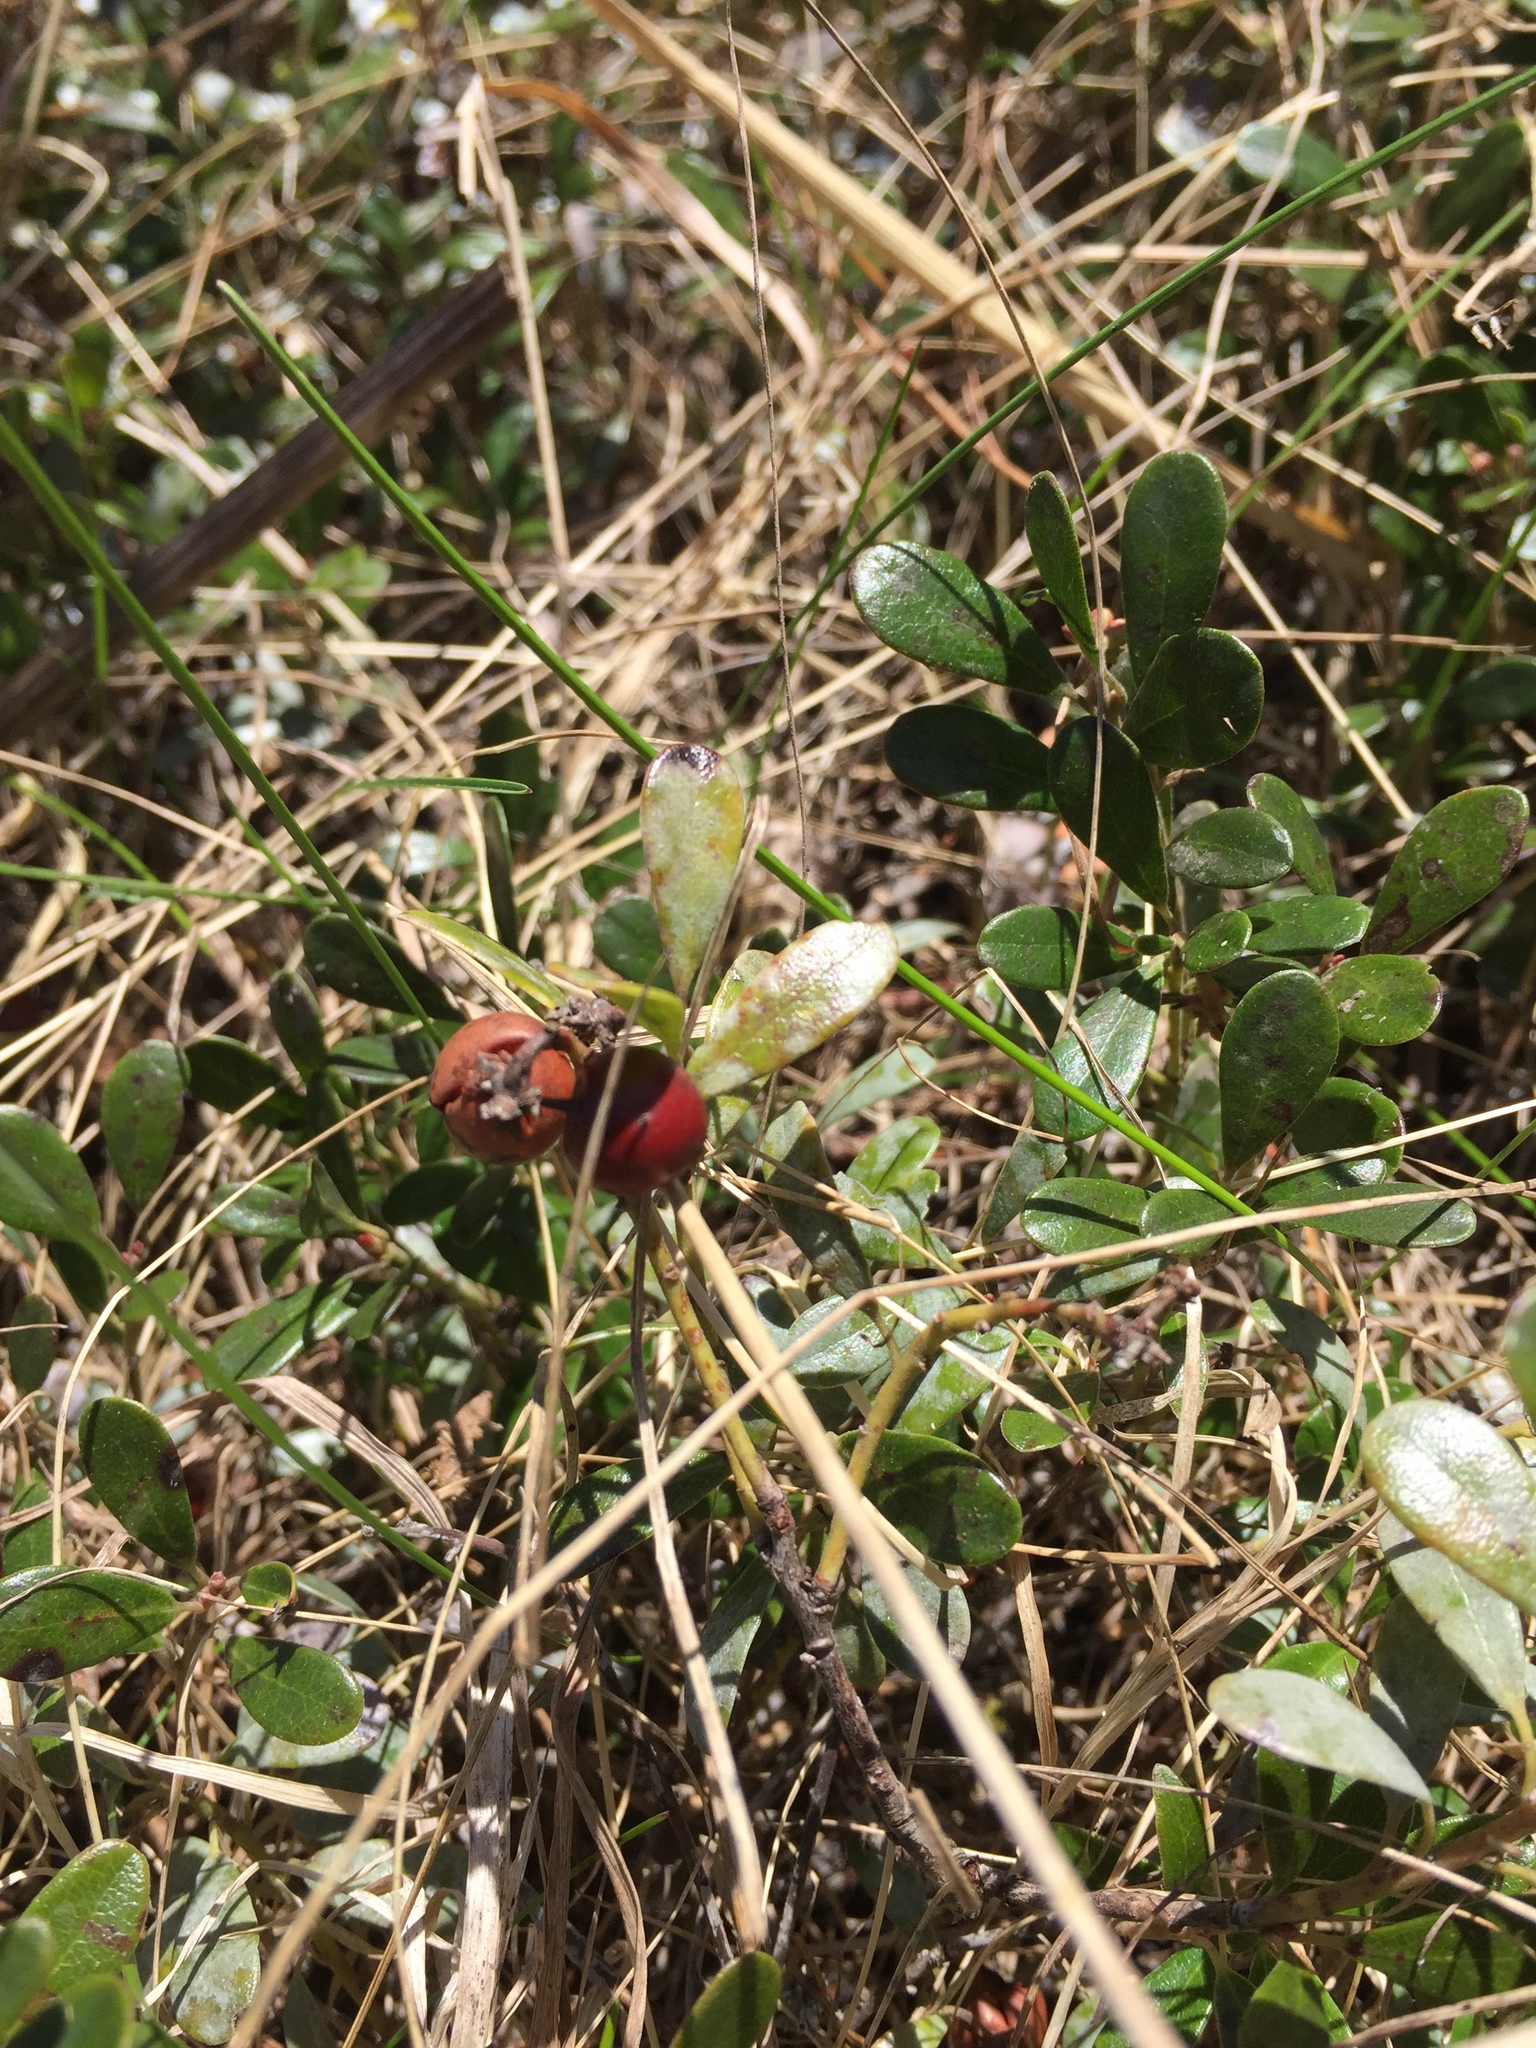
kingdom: Plantae
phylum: Tracheophyta
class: Magnoliopsida
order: Ericales
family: Ericaceae
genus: Arctostaphylos
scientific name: Arctostaphylos uva-ursi
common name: Bearberry
